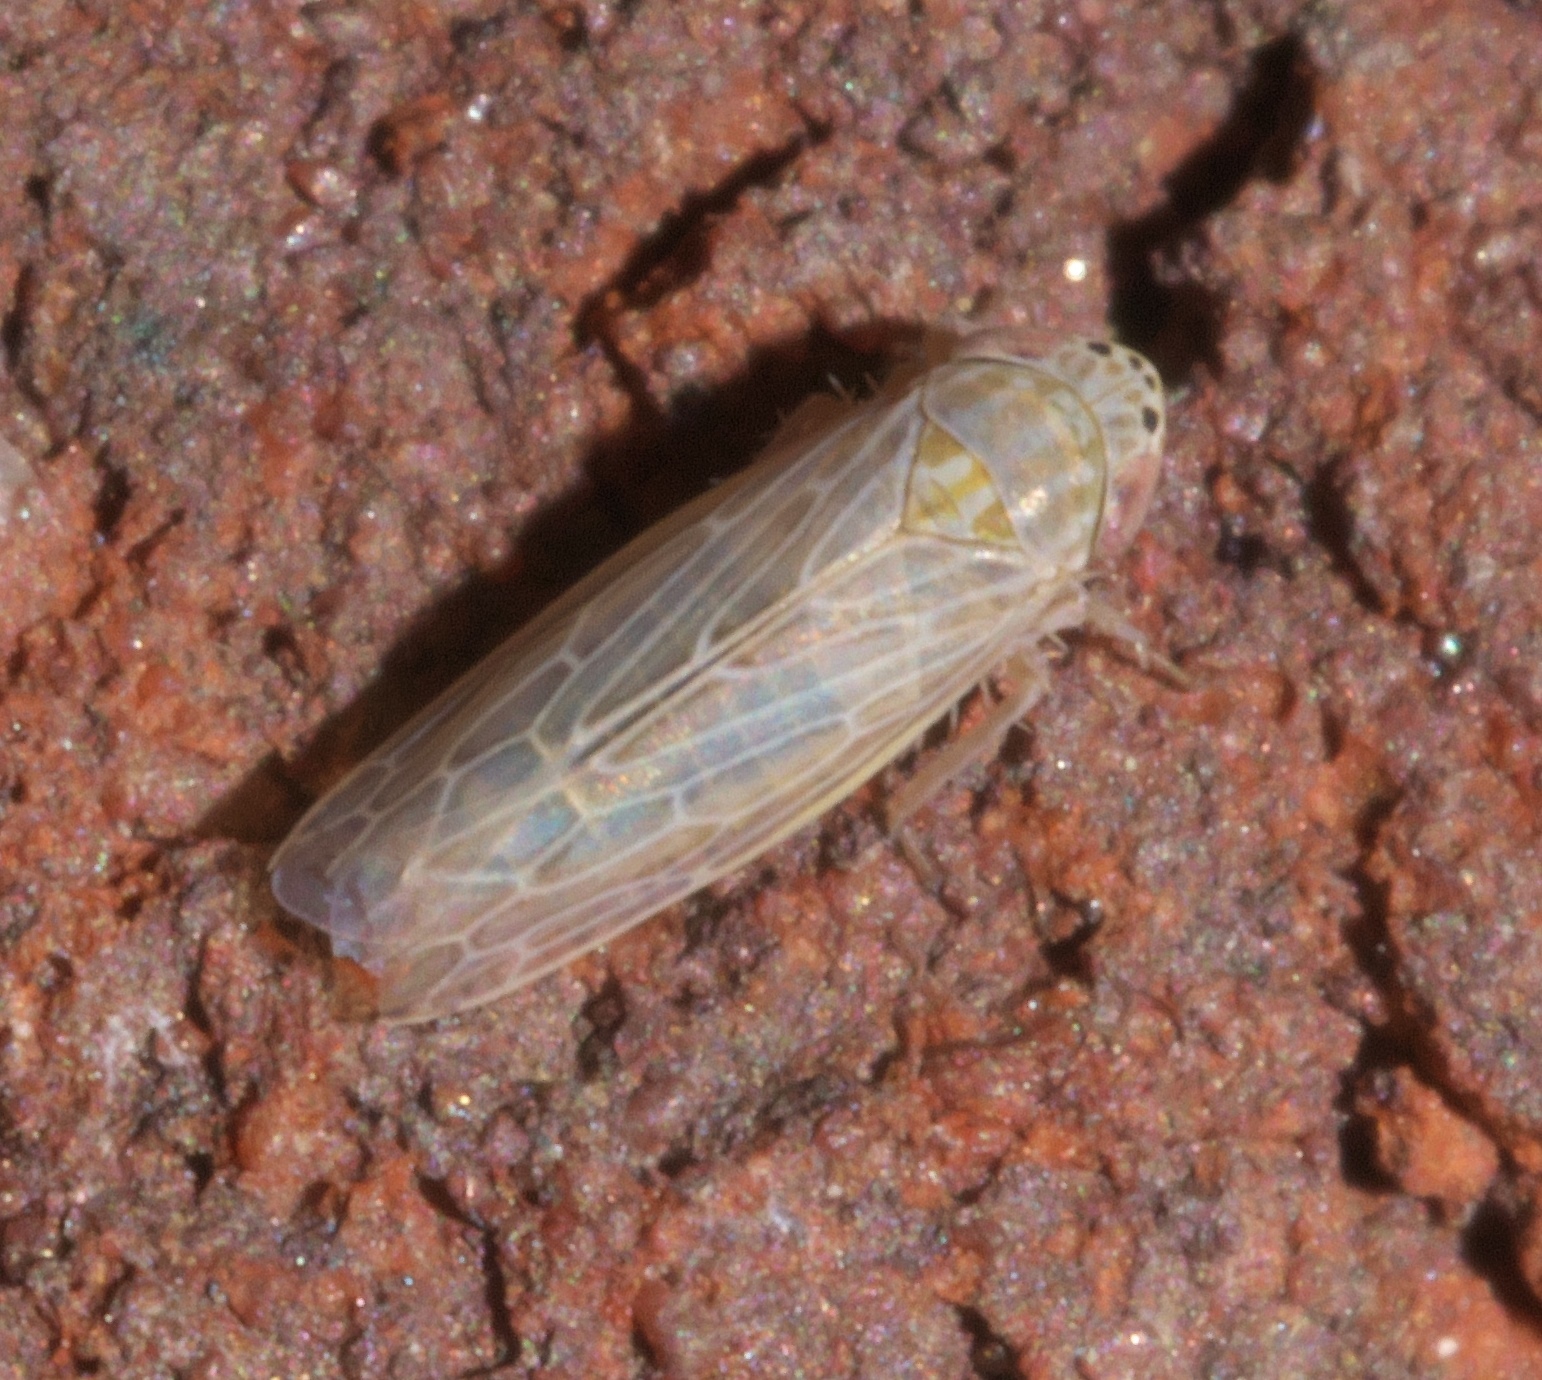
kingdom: Animalia
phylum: Arthropoda
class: Insecta
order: Hemiptera
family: Cicadellidae
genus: Graminella
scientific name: Graminella sonora
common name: Lesser lawn leafhopper
